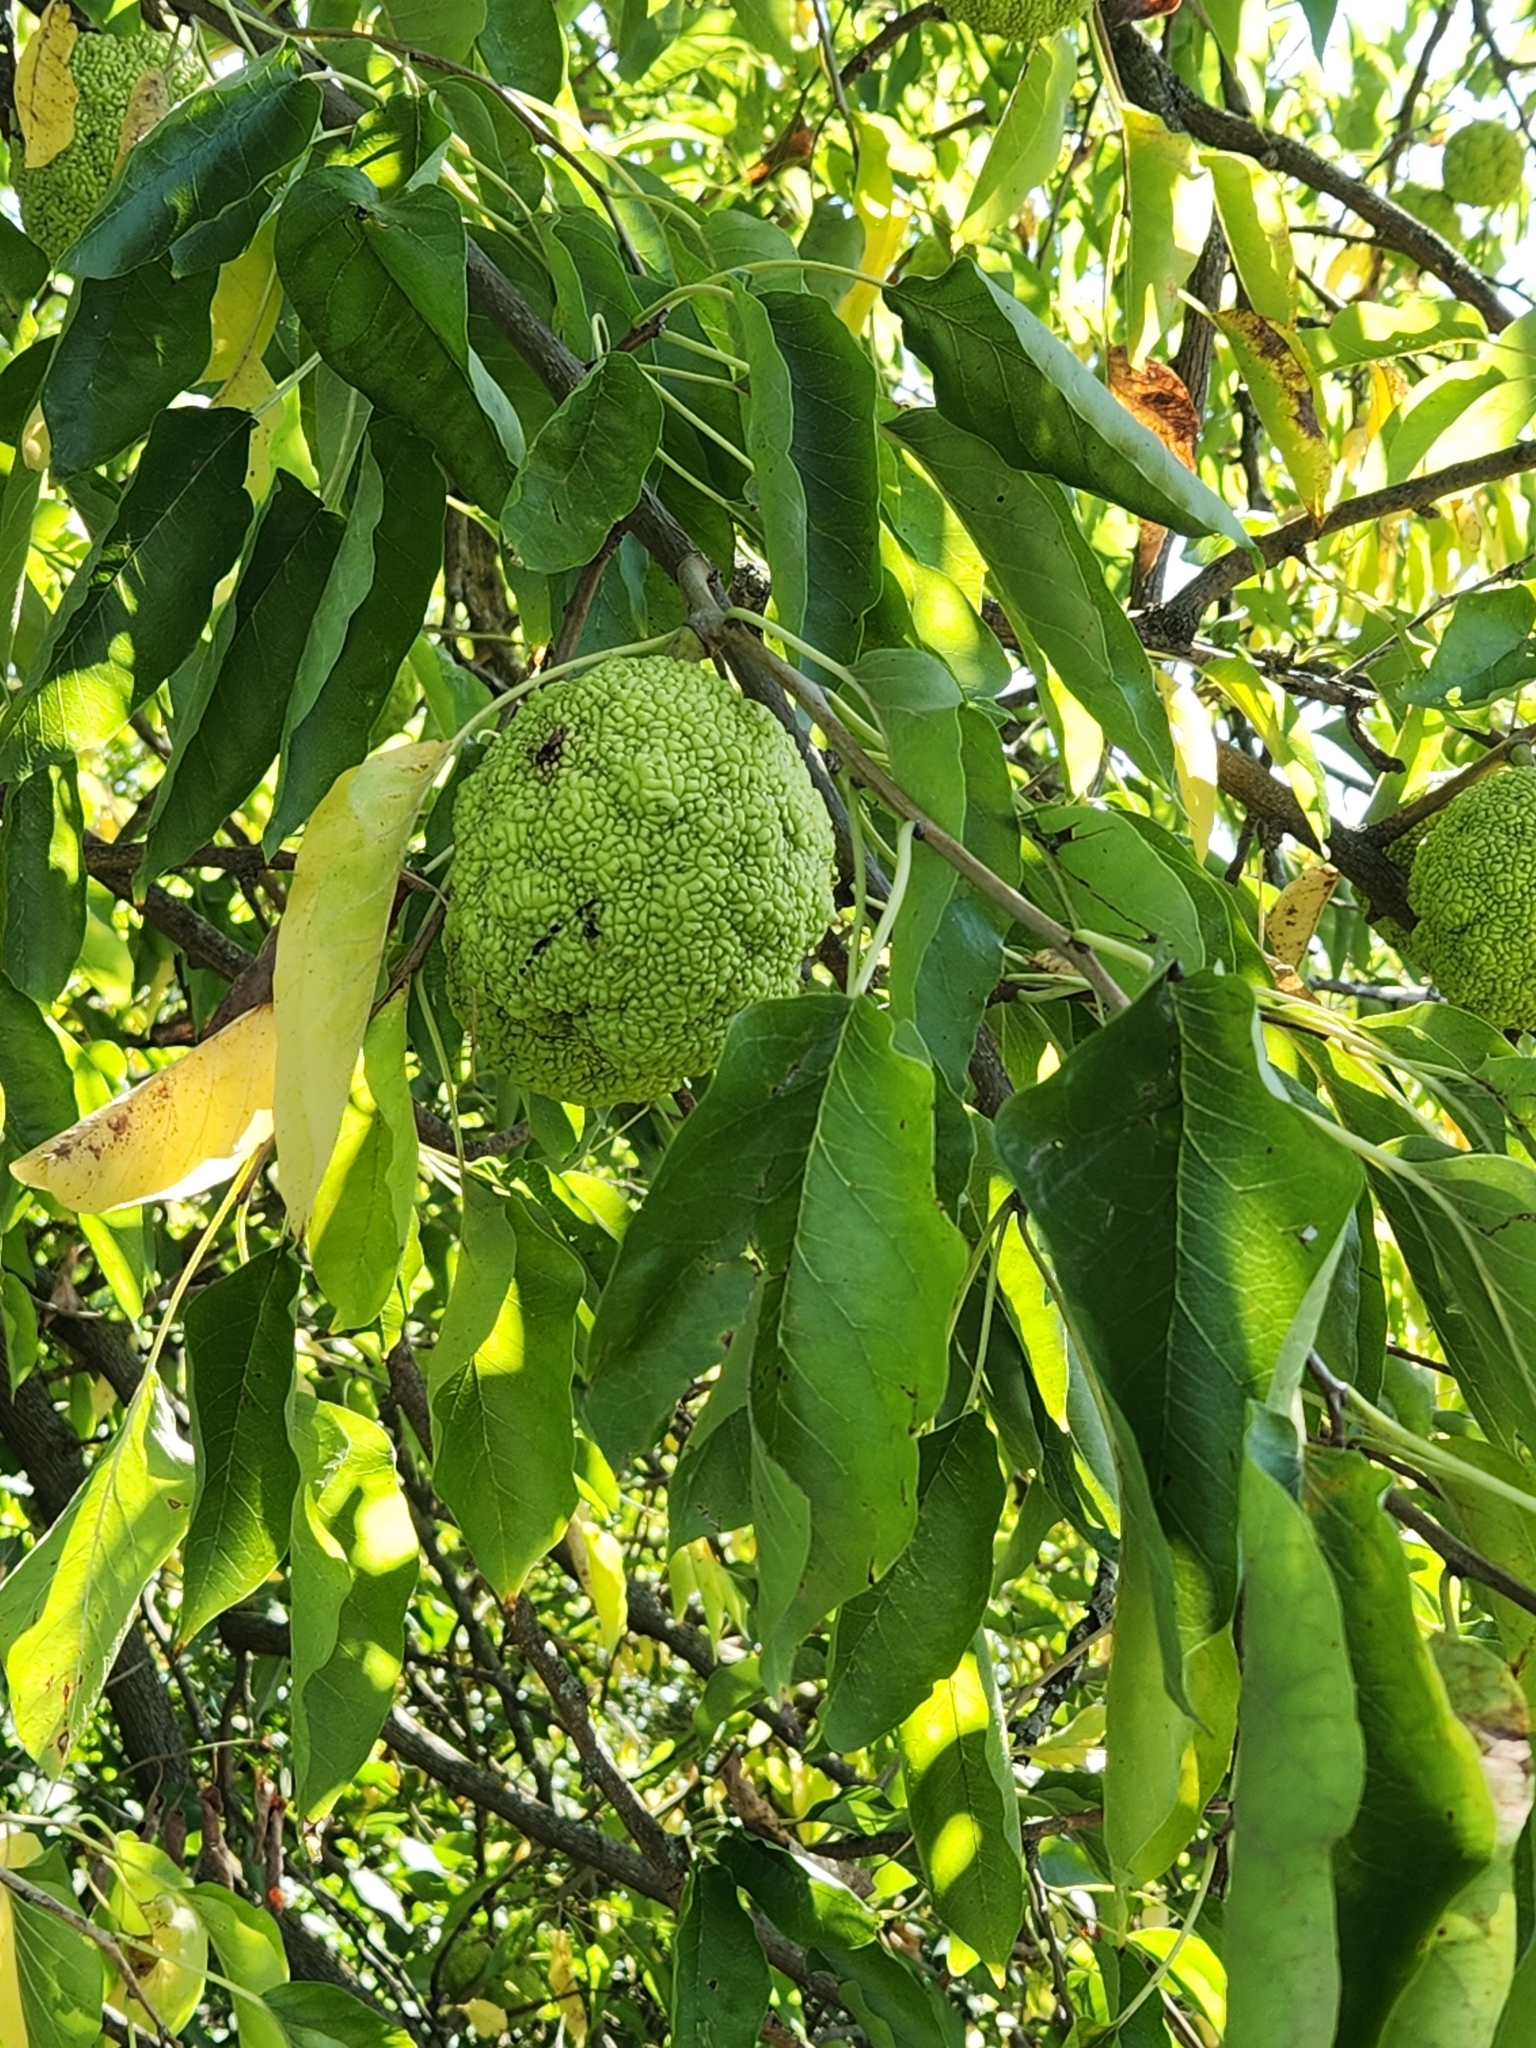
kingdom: Plantae
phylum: Tracheophyta
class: Magnoliopsida
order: Rosales
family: Moraceae
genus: Maclura
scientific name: Maclura pomifera
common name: Osage-orange
